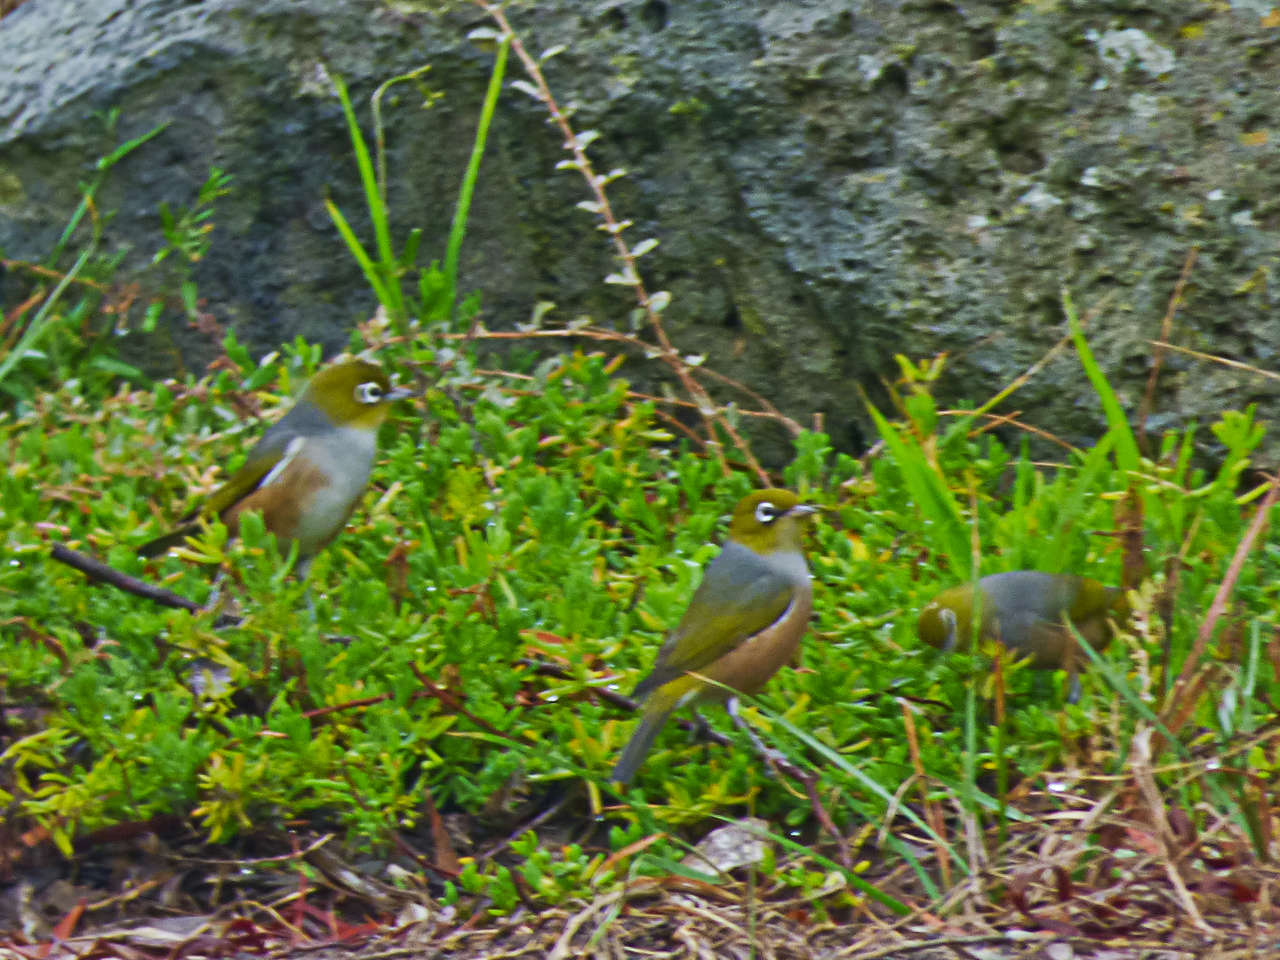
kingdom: Animalia
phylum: Chordata
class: Aves
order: Passeriformes
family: Zosteropidae
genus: Zosterops
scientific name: Zosterops lateralis
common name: Silvereye
